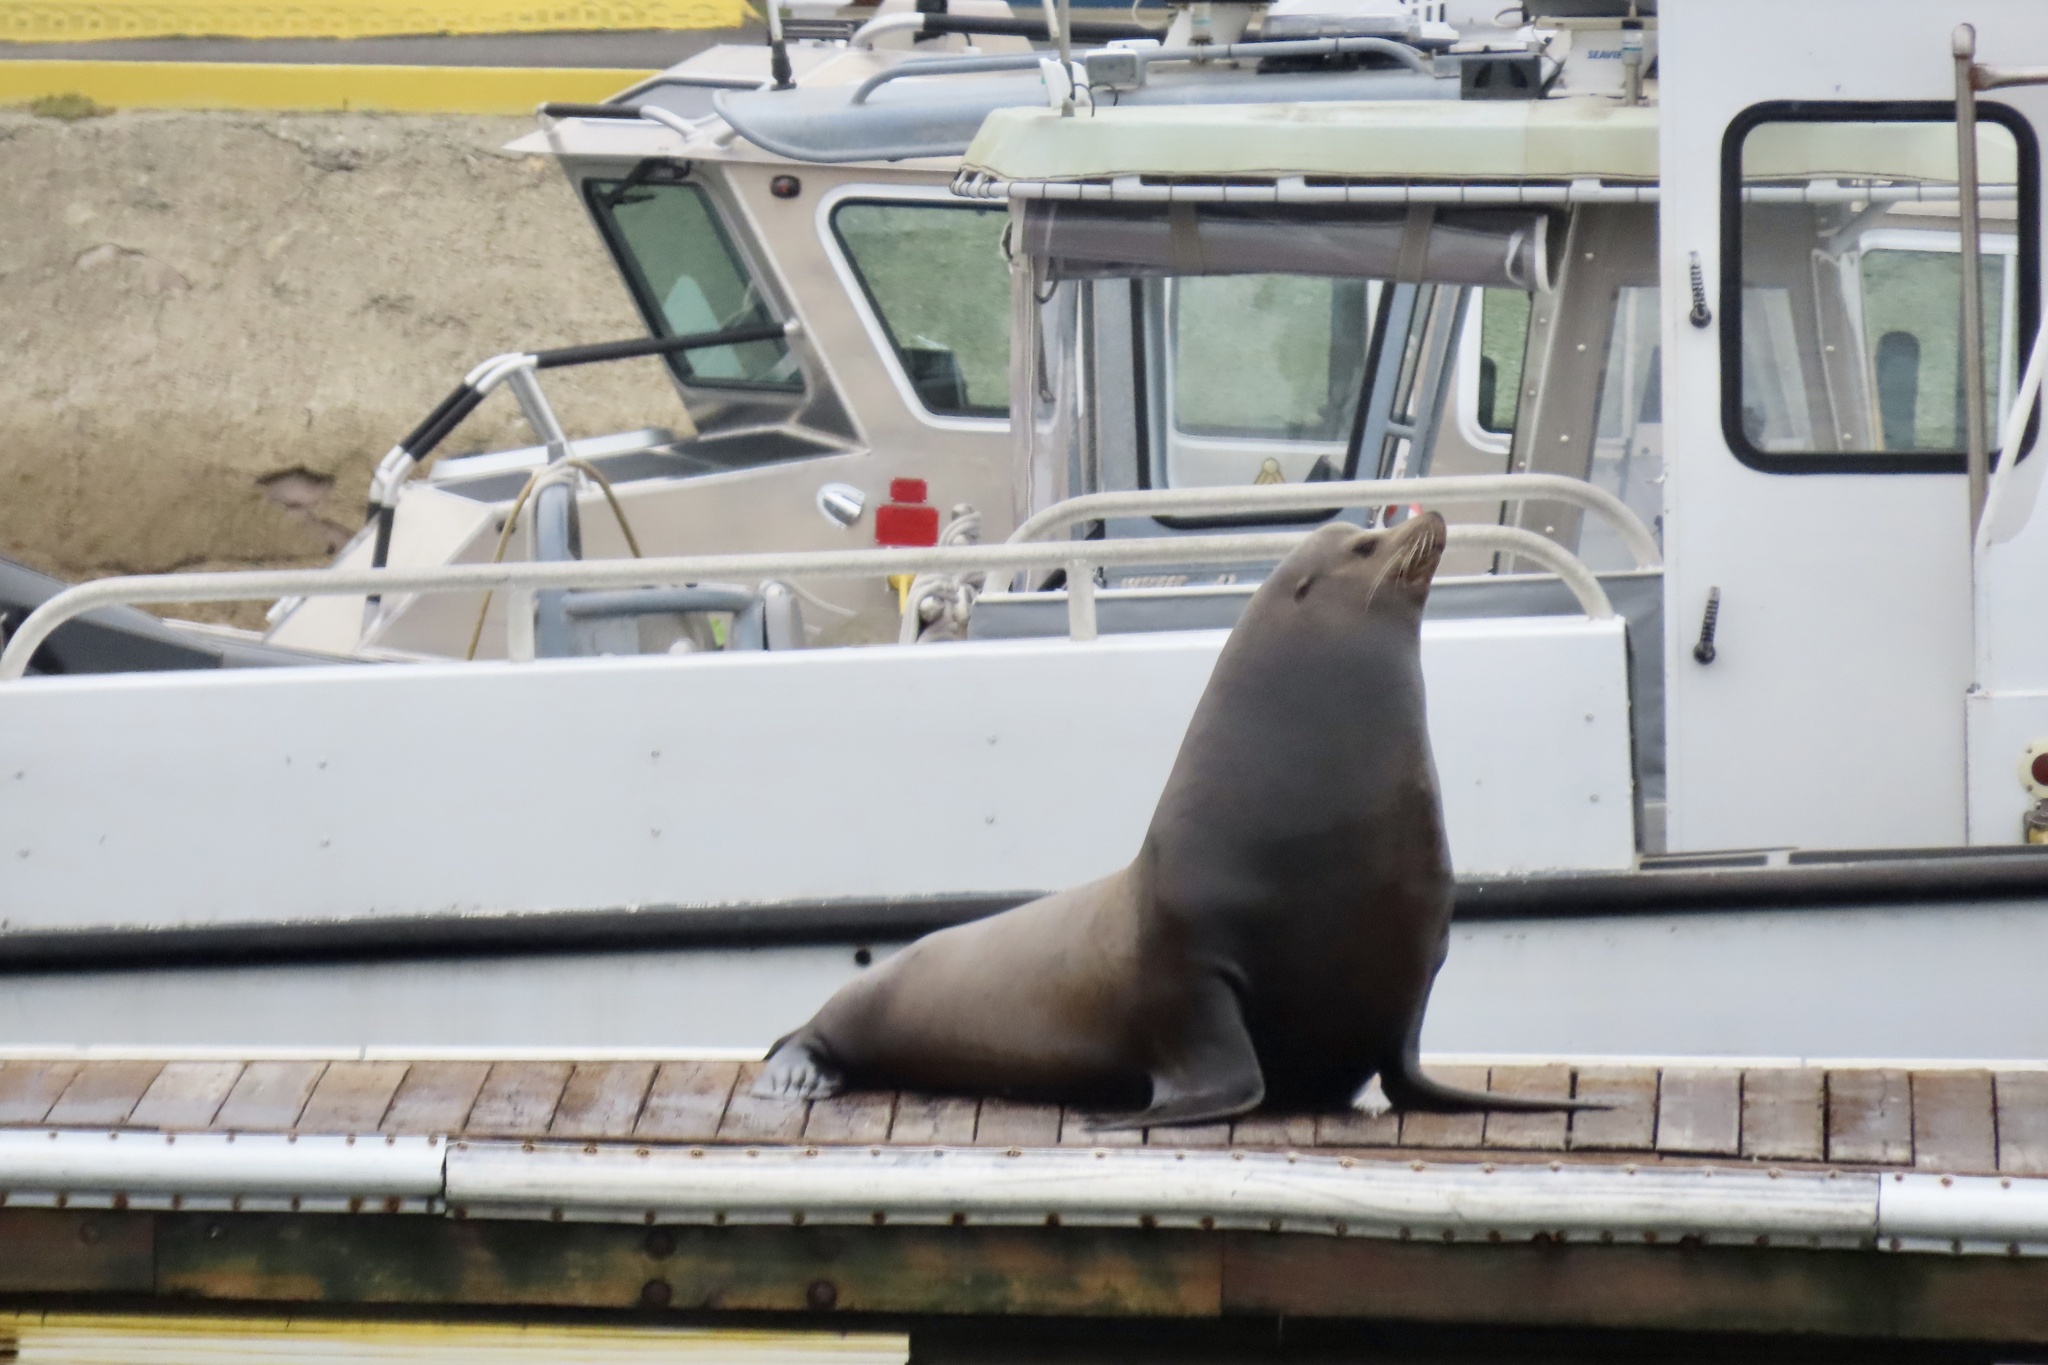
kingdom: Animalia
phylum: Chordata
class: Mammalia
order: Carnivora
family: Otariidae
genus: Zalophus
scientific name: Zalophus californianus
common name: California sea lion
